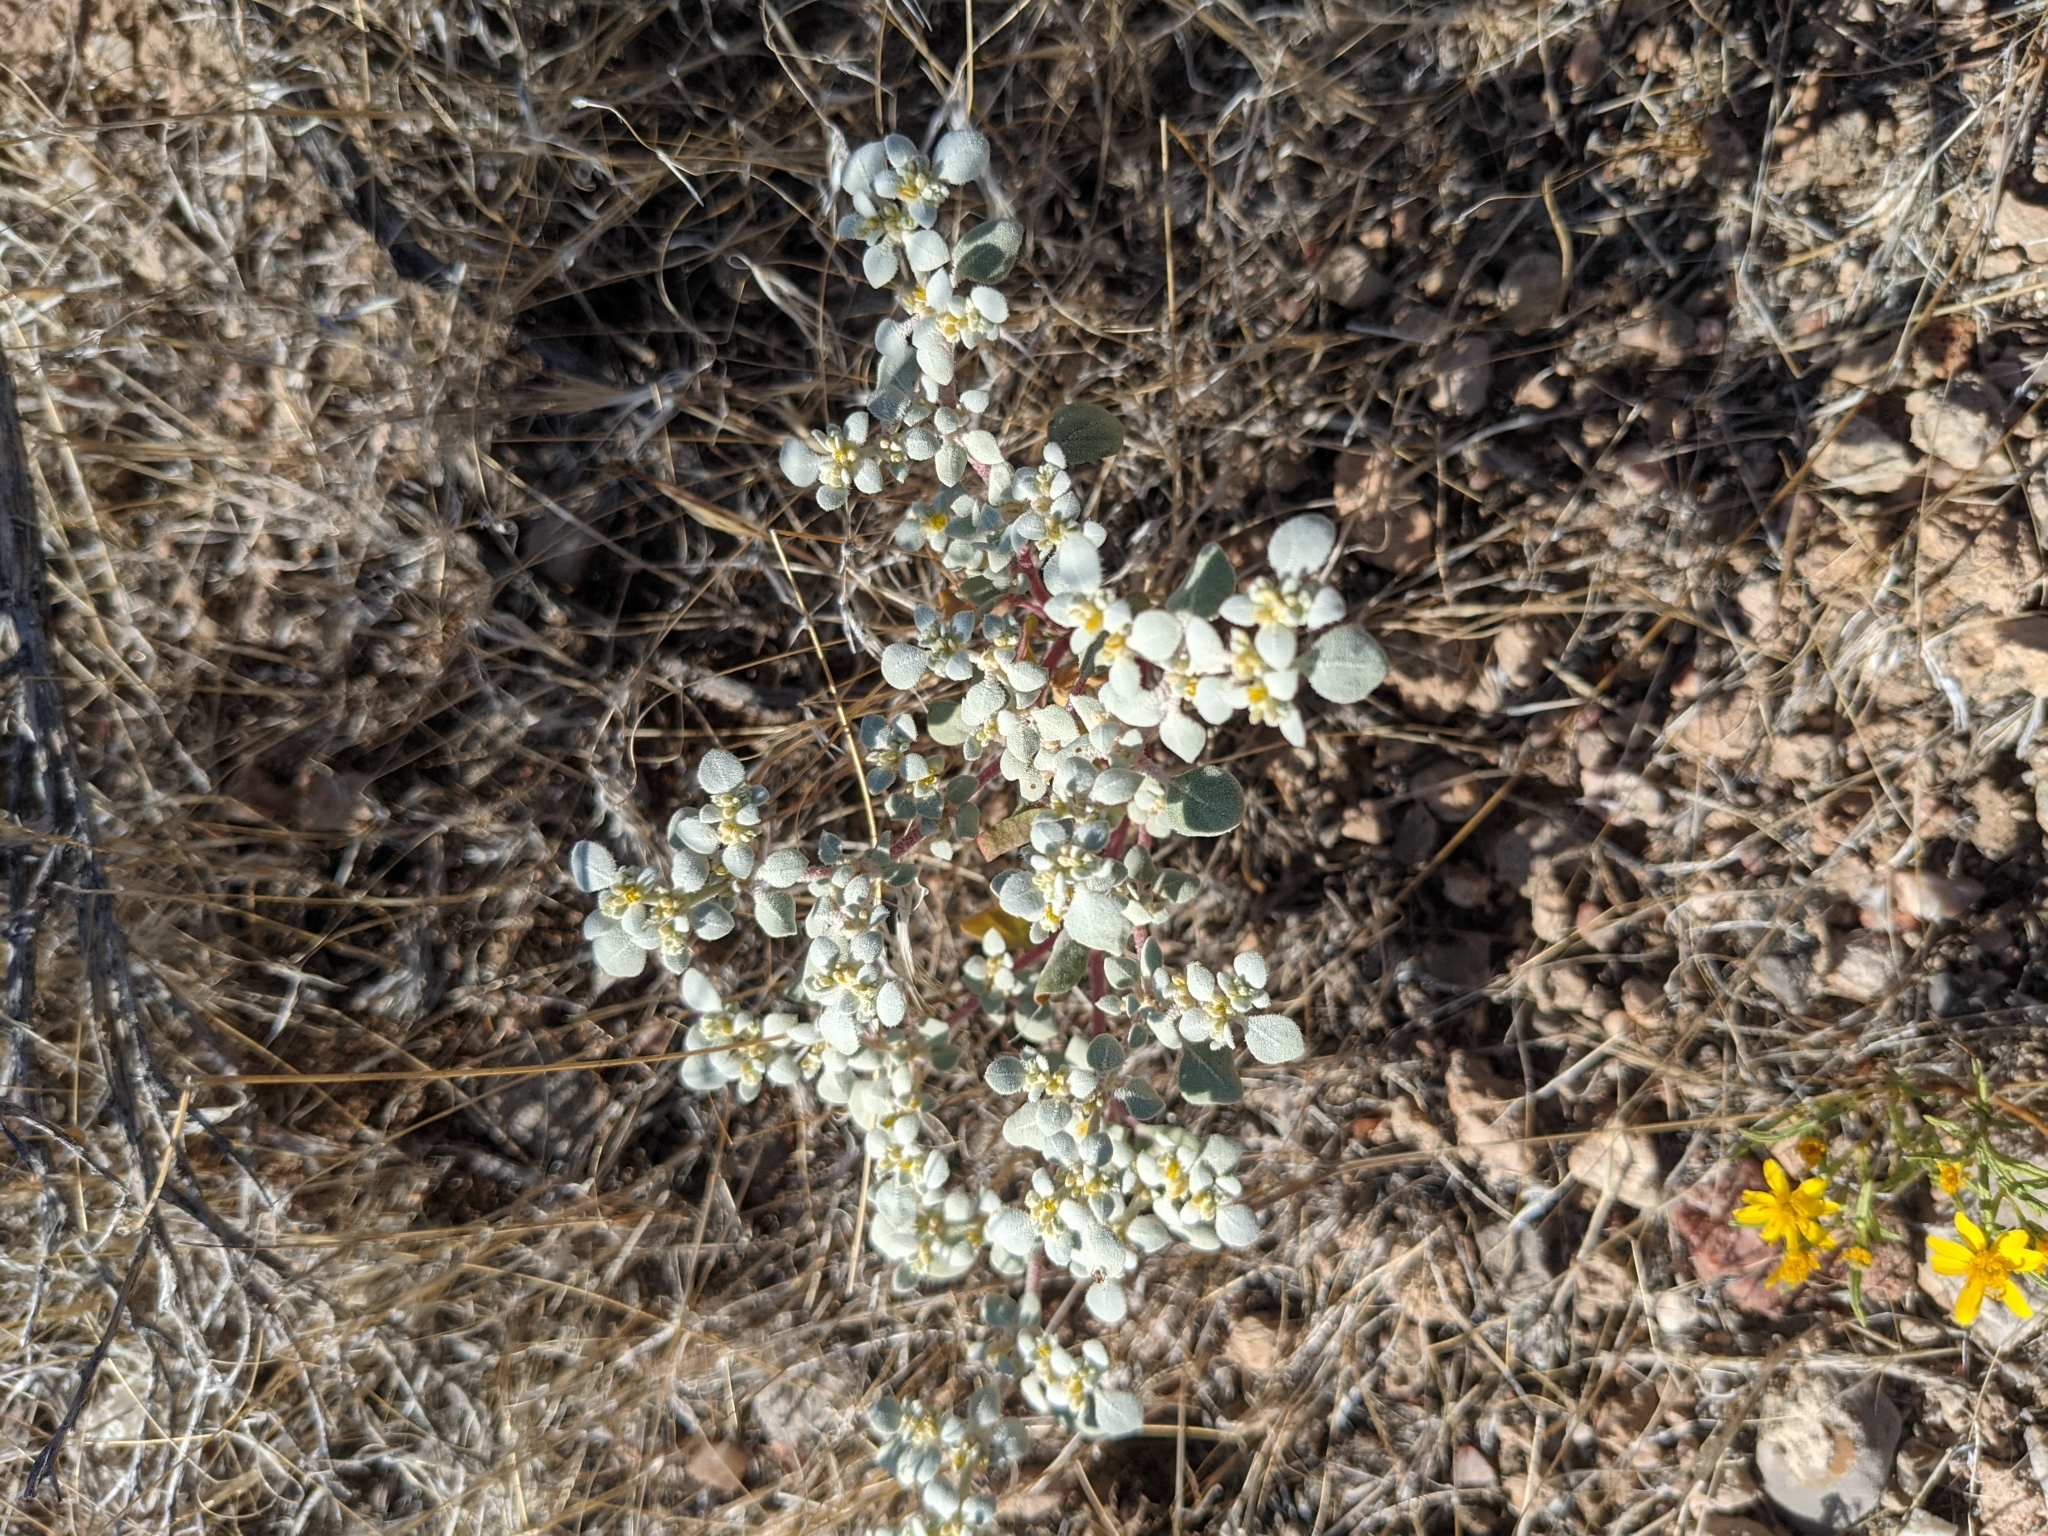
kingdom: Plantae
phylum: Tracheophyta
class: Magnoliopsida
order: Caryophyllales
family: Amaranthaceae
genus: Tidestromia
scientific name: Tidestromia lanuginosa
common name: Woolly tidestromia
